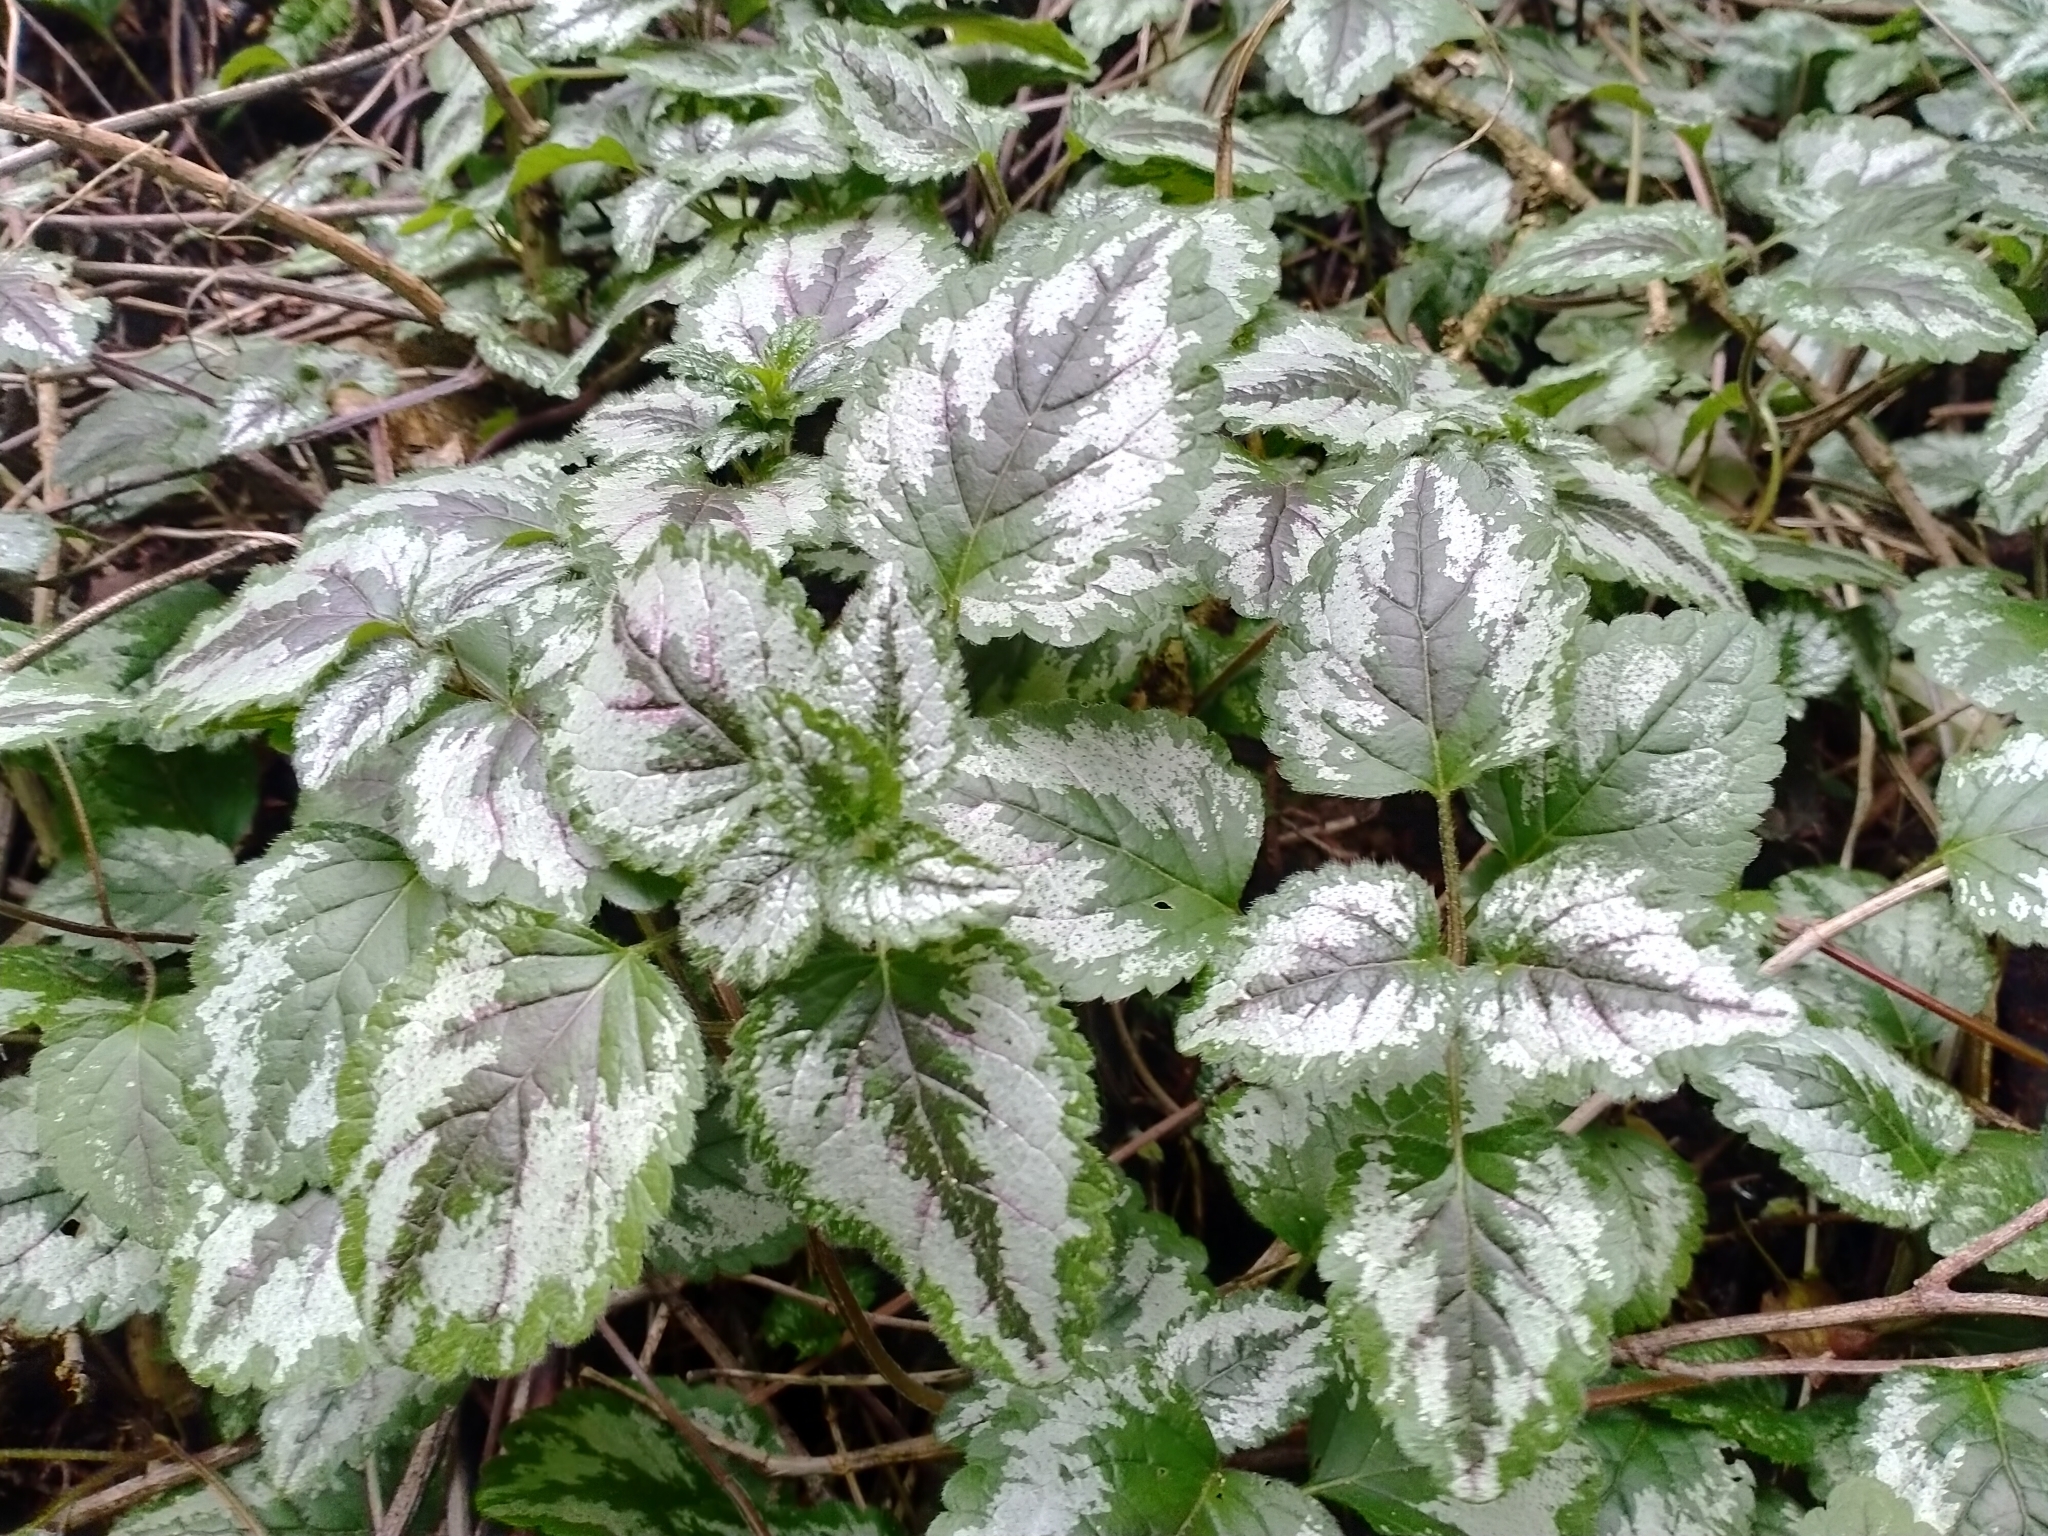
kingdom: Plantae
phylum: Tracheophyta
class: Magnoliopsida
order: Lamiales
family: Lamiaceae
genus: Lamium
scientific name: Lamium galeobdolon
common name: Yellow archangel
